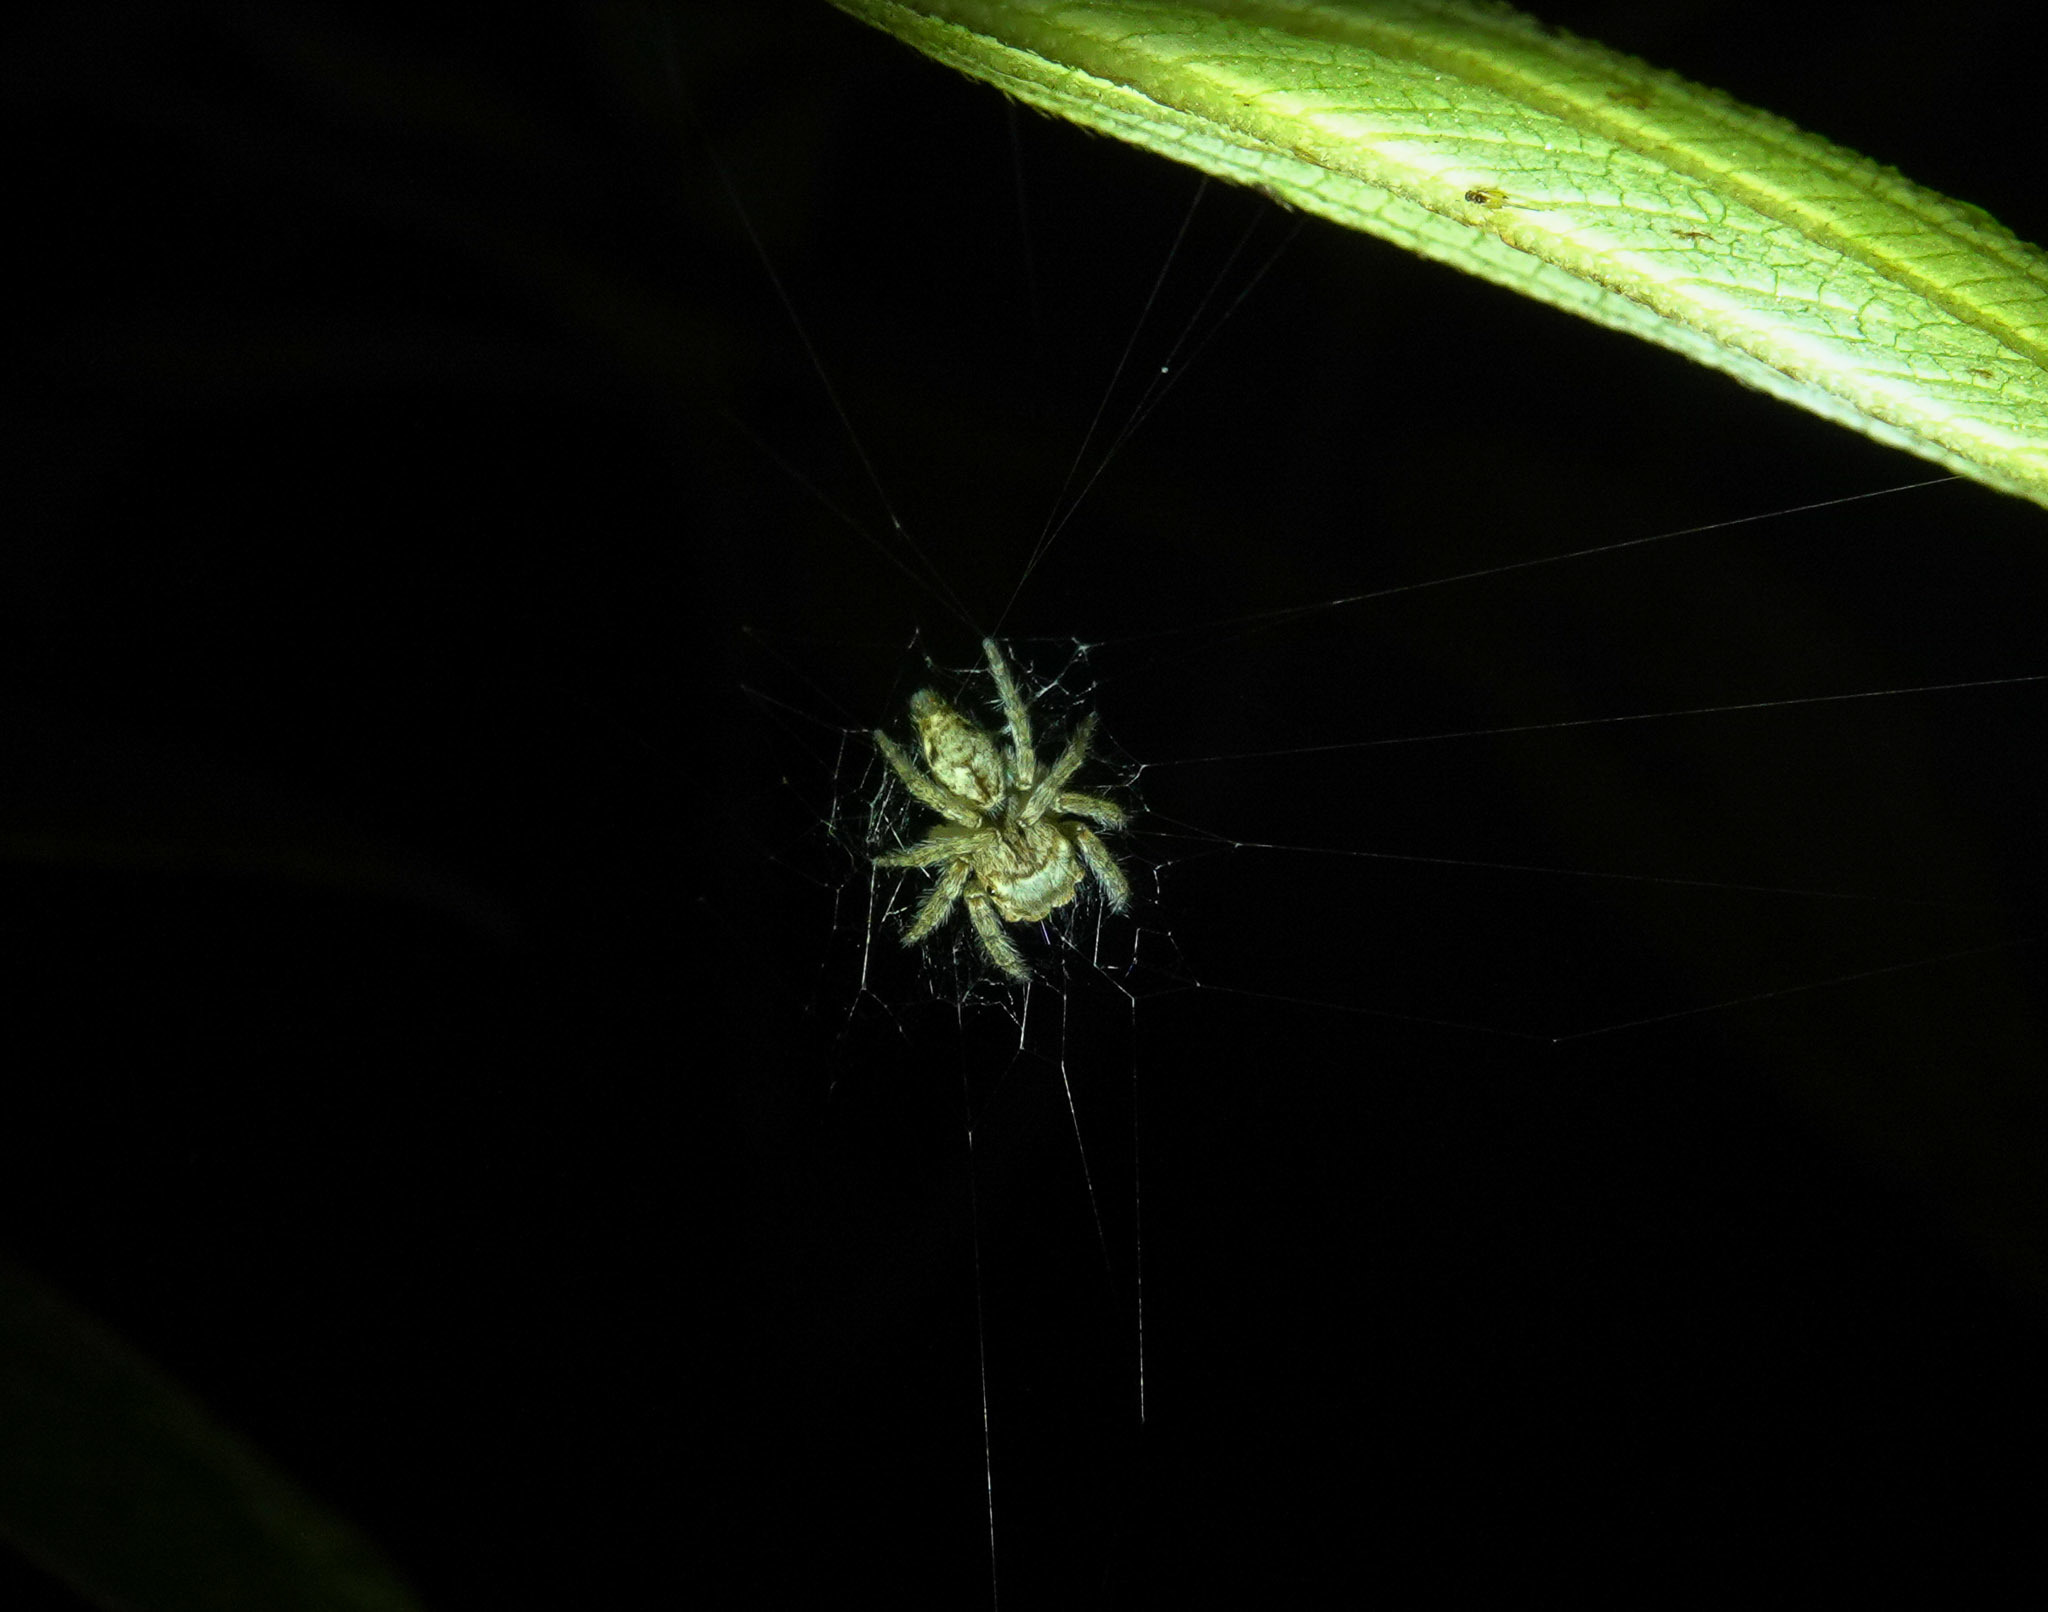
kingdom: Animalia
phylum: Arthropoda
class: Arachnida
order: Araneae
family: Salticidae
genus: Vailimia
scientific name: Vailimia jharbari
